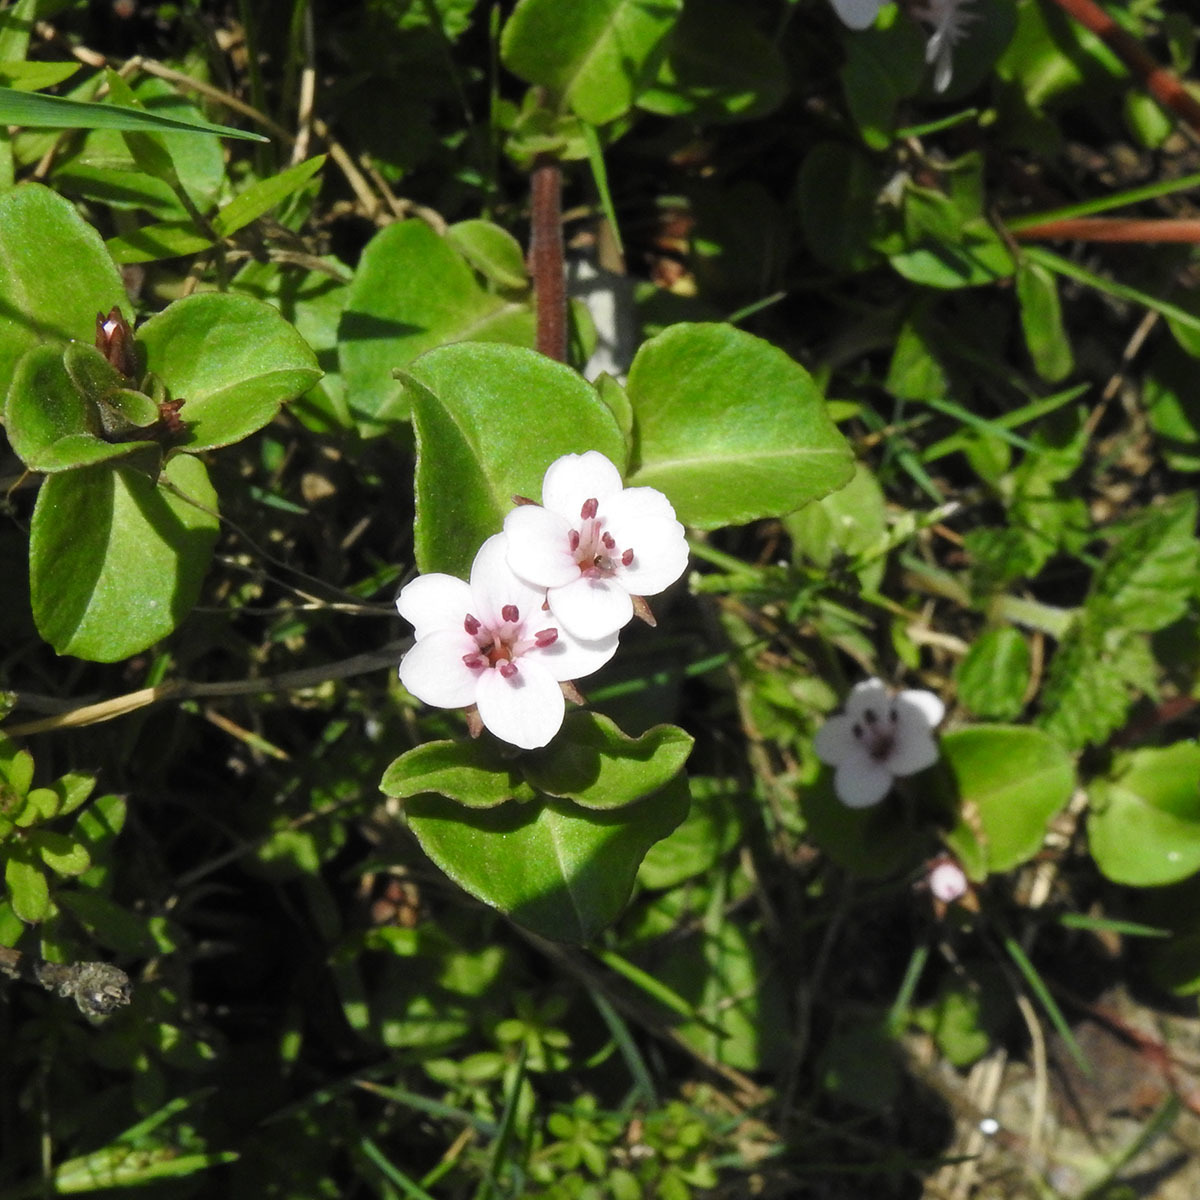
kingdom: Plantae
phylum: Tracheophyta
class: Magnoliopsida
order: Ericales
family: Primulaceae
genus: Lysimachia
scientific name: Lysimachia prolifera
